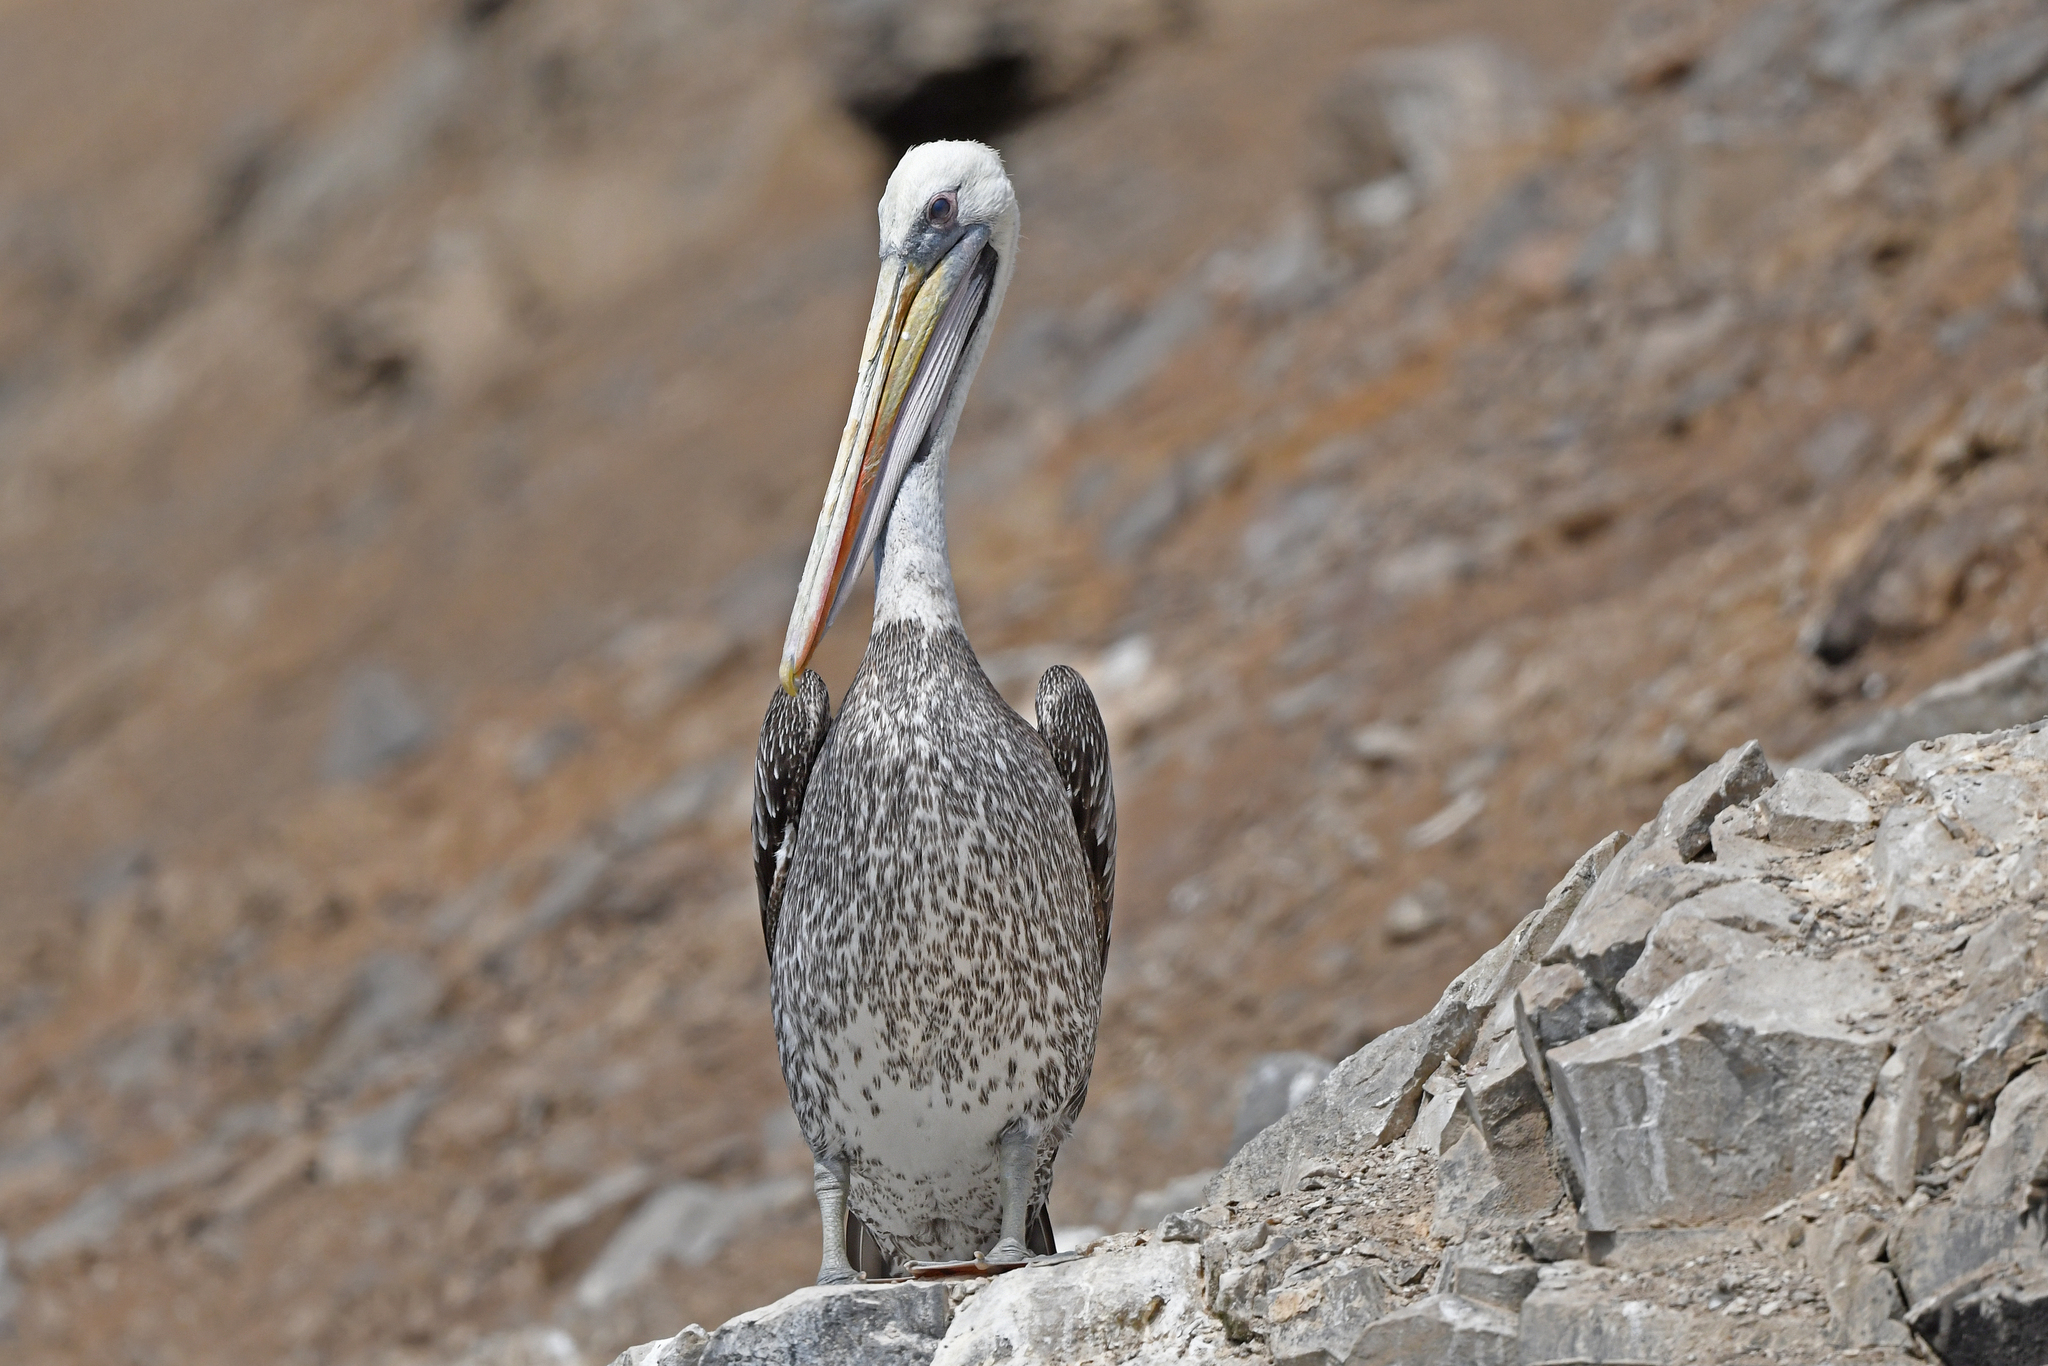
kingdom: Animalia
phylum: Chordata
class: Aves
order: Pelecaniformes
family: Pelecanidae
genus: Pelecanus
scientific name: Pelecanus thagus
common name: Peruvian pelican
